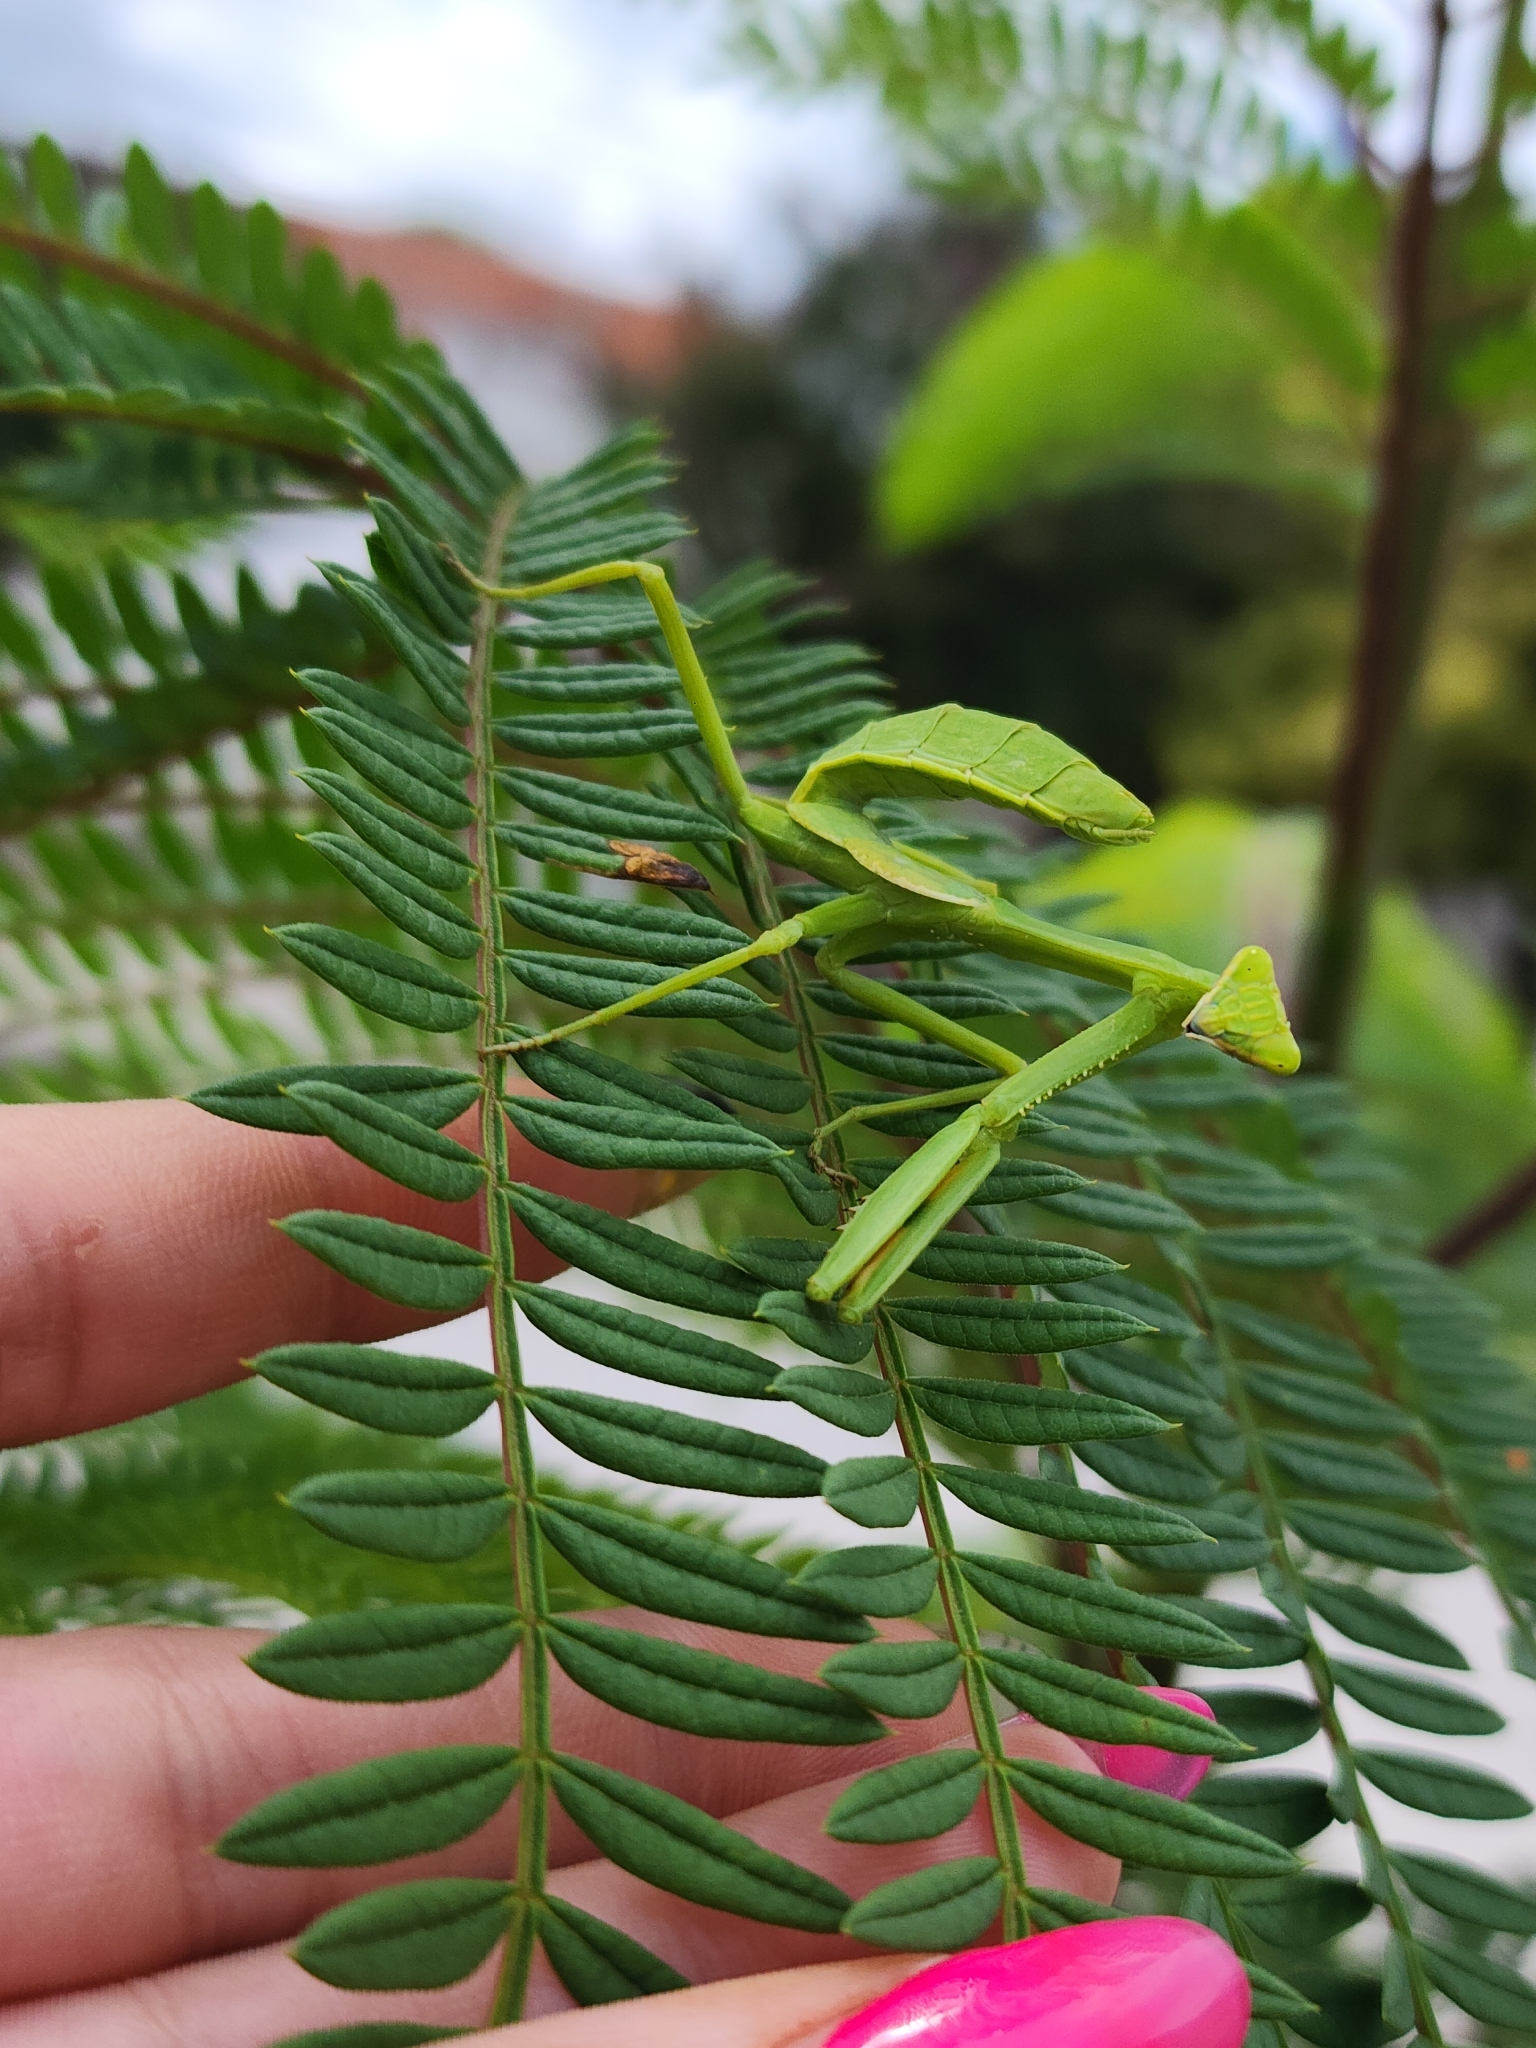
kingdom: Animalia
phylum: Arthropoda
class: Insecta
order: Mantodea
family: Mantidae
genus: Stagmatoptera
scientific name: Stagmatoptera hyaloptera
